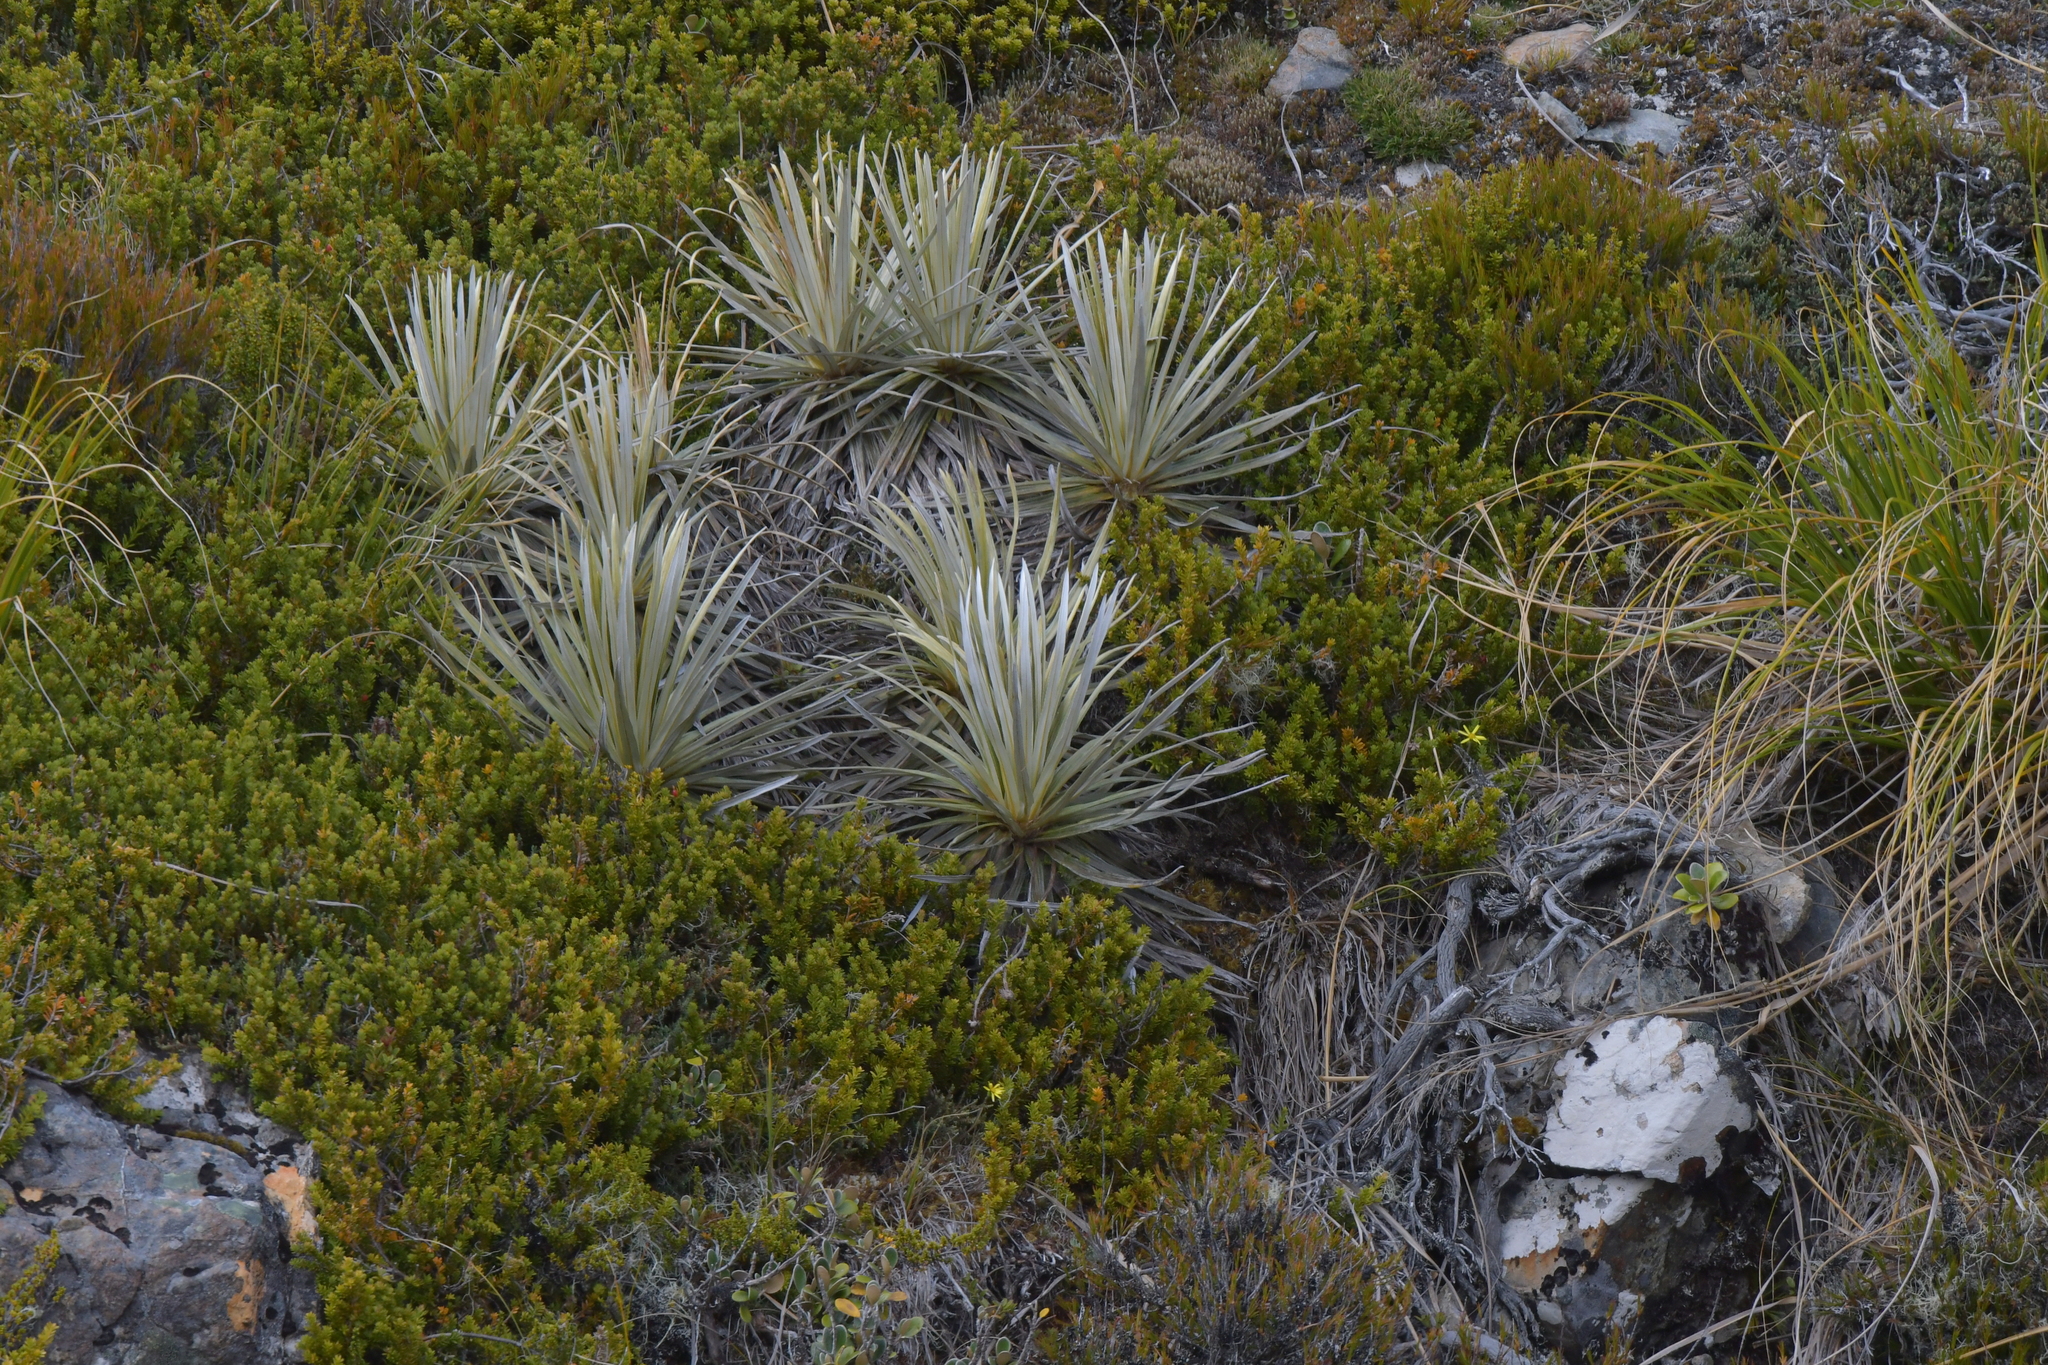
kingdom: Plantae
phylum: Tracheophyta
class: Magnoliopsida
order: Asterales
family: Asteraceae
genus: Celmisia
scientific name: Celmisia armstrongii
